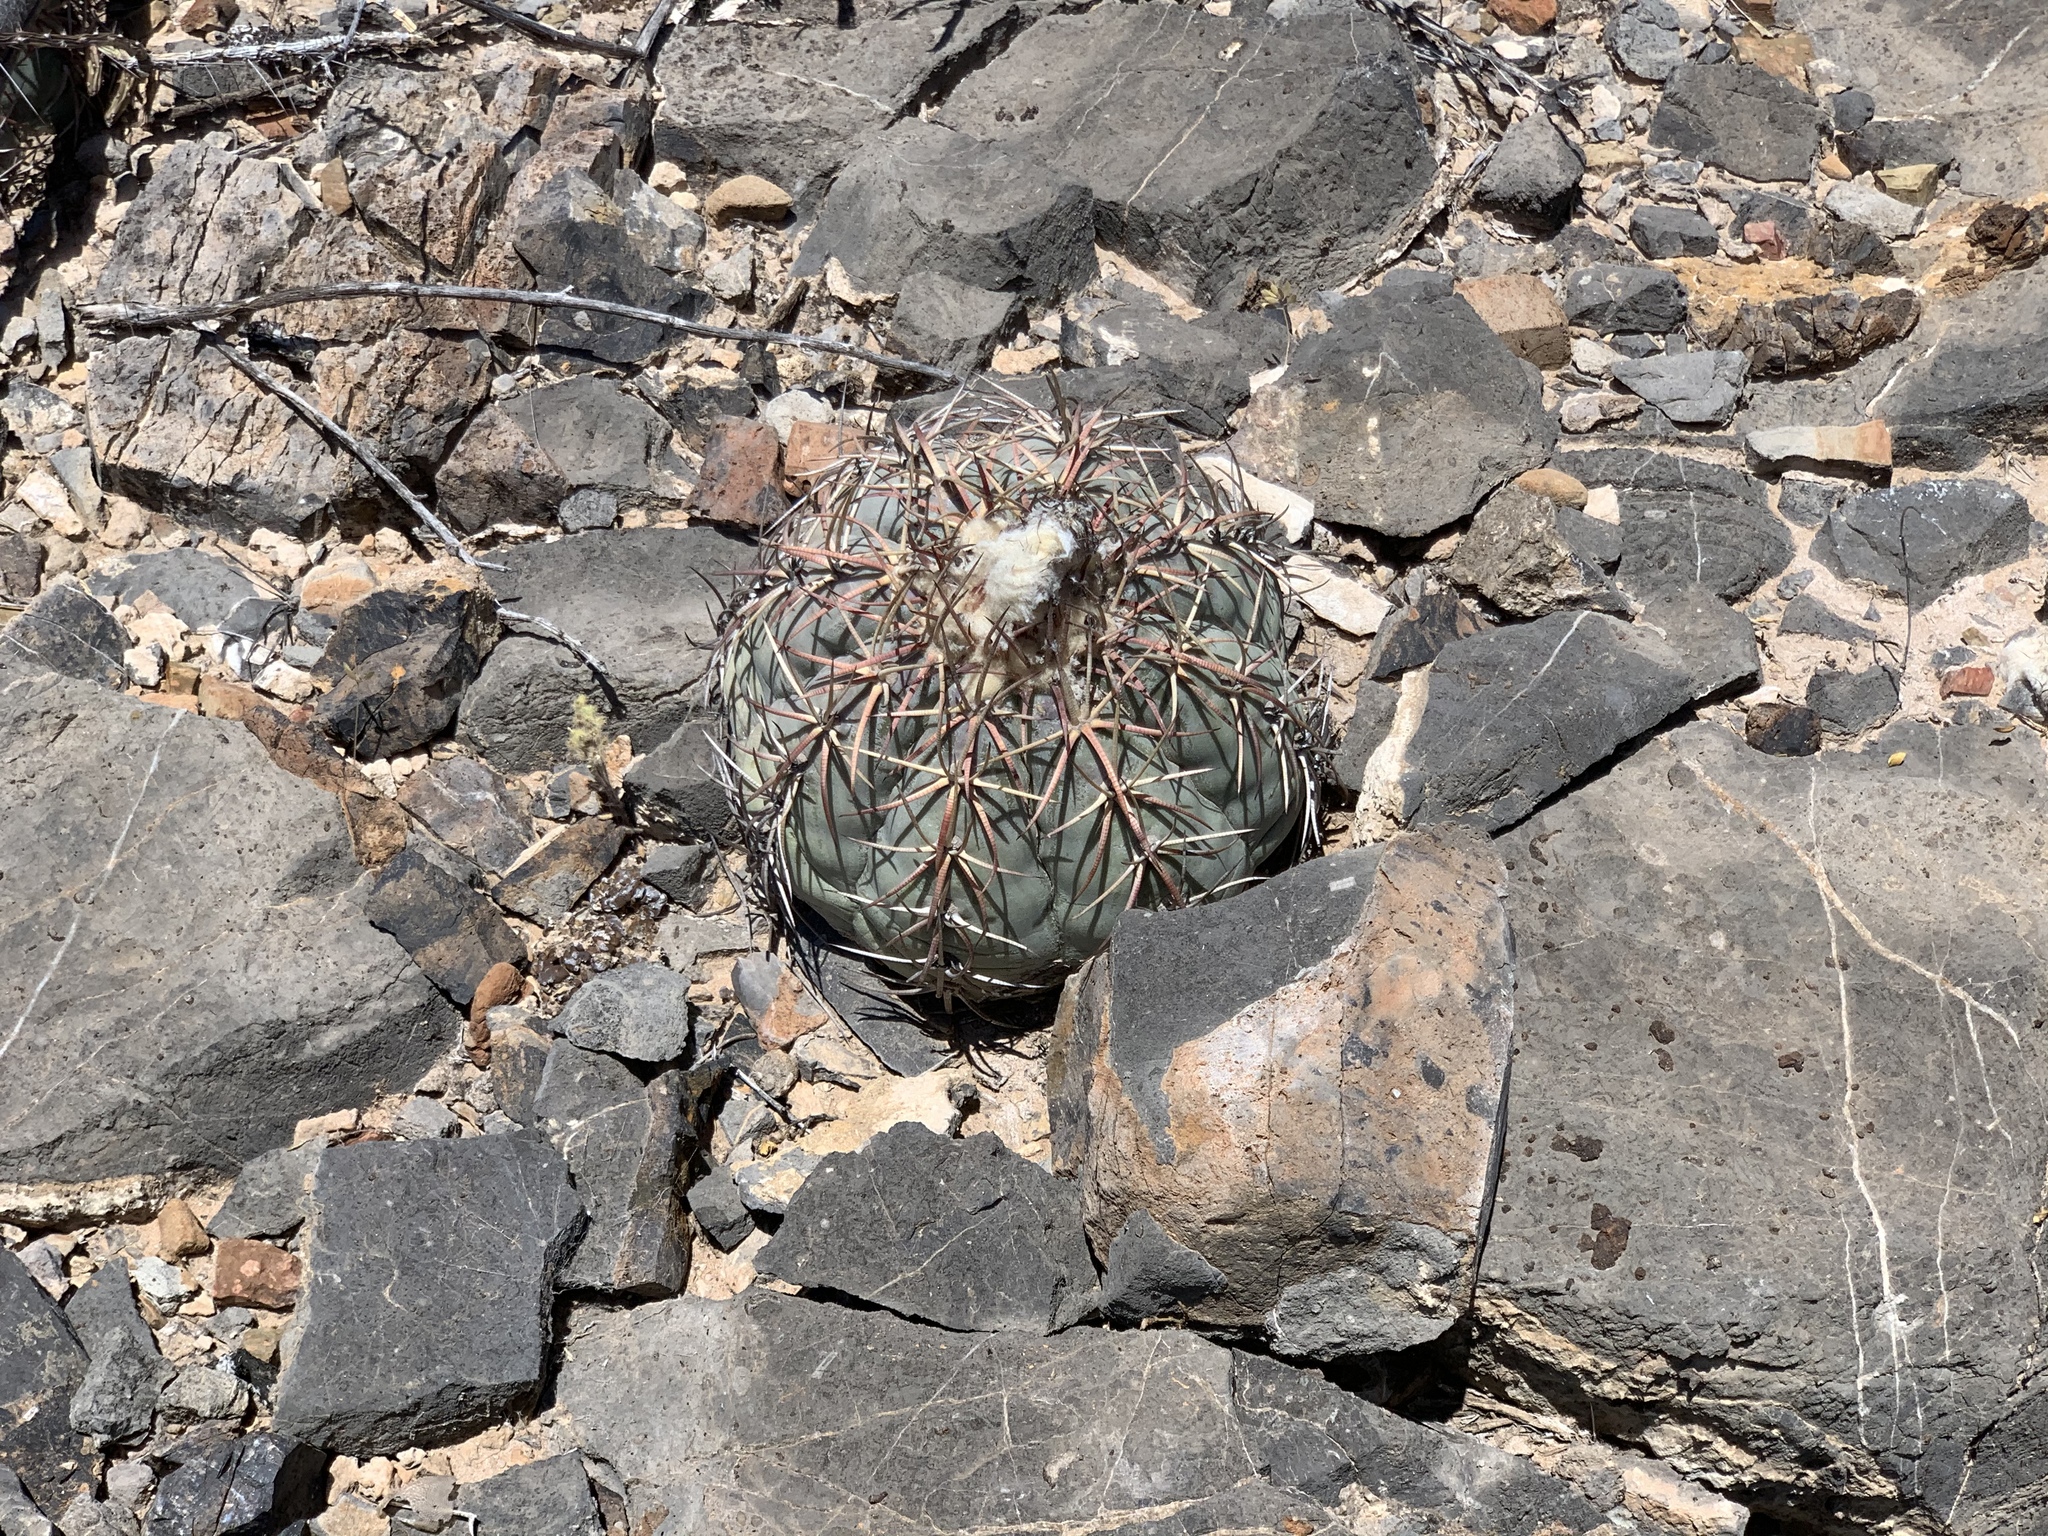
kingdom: Plantae
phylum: Tracheophyta
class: Magnoliopsida
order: Caryophyllales
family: Cactaceae
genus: Echinocactus
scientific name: Echinocactus horizonthalonius
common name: Devilshead
